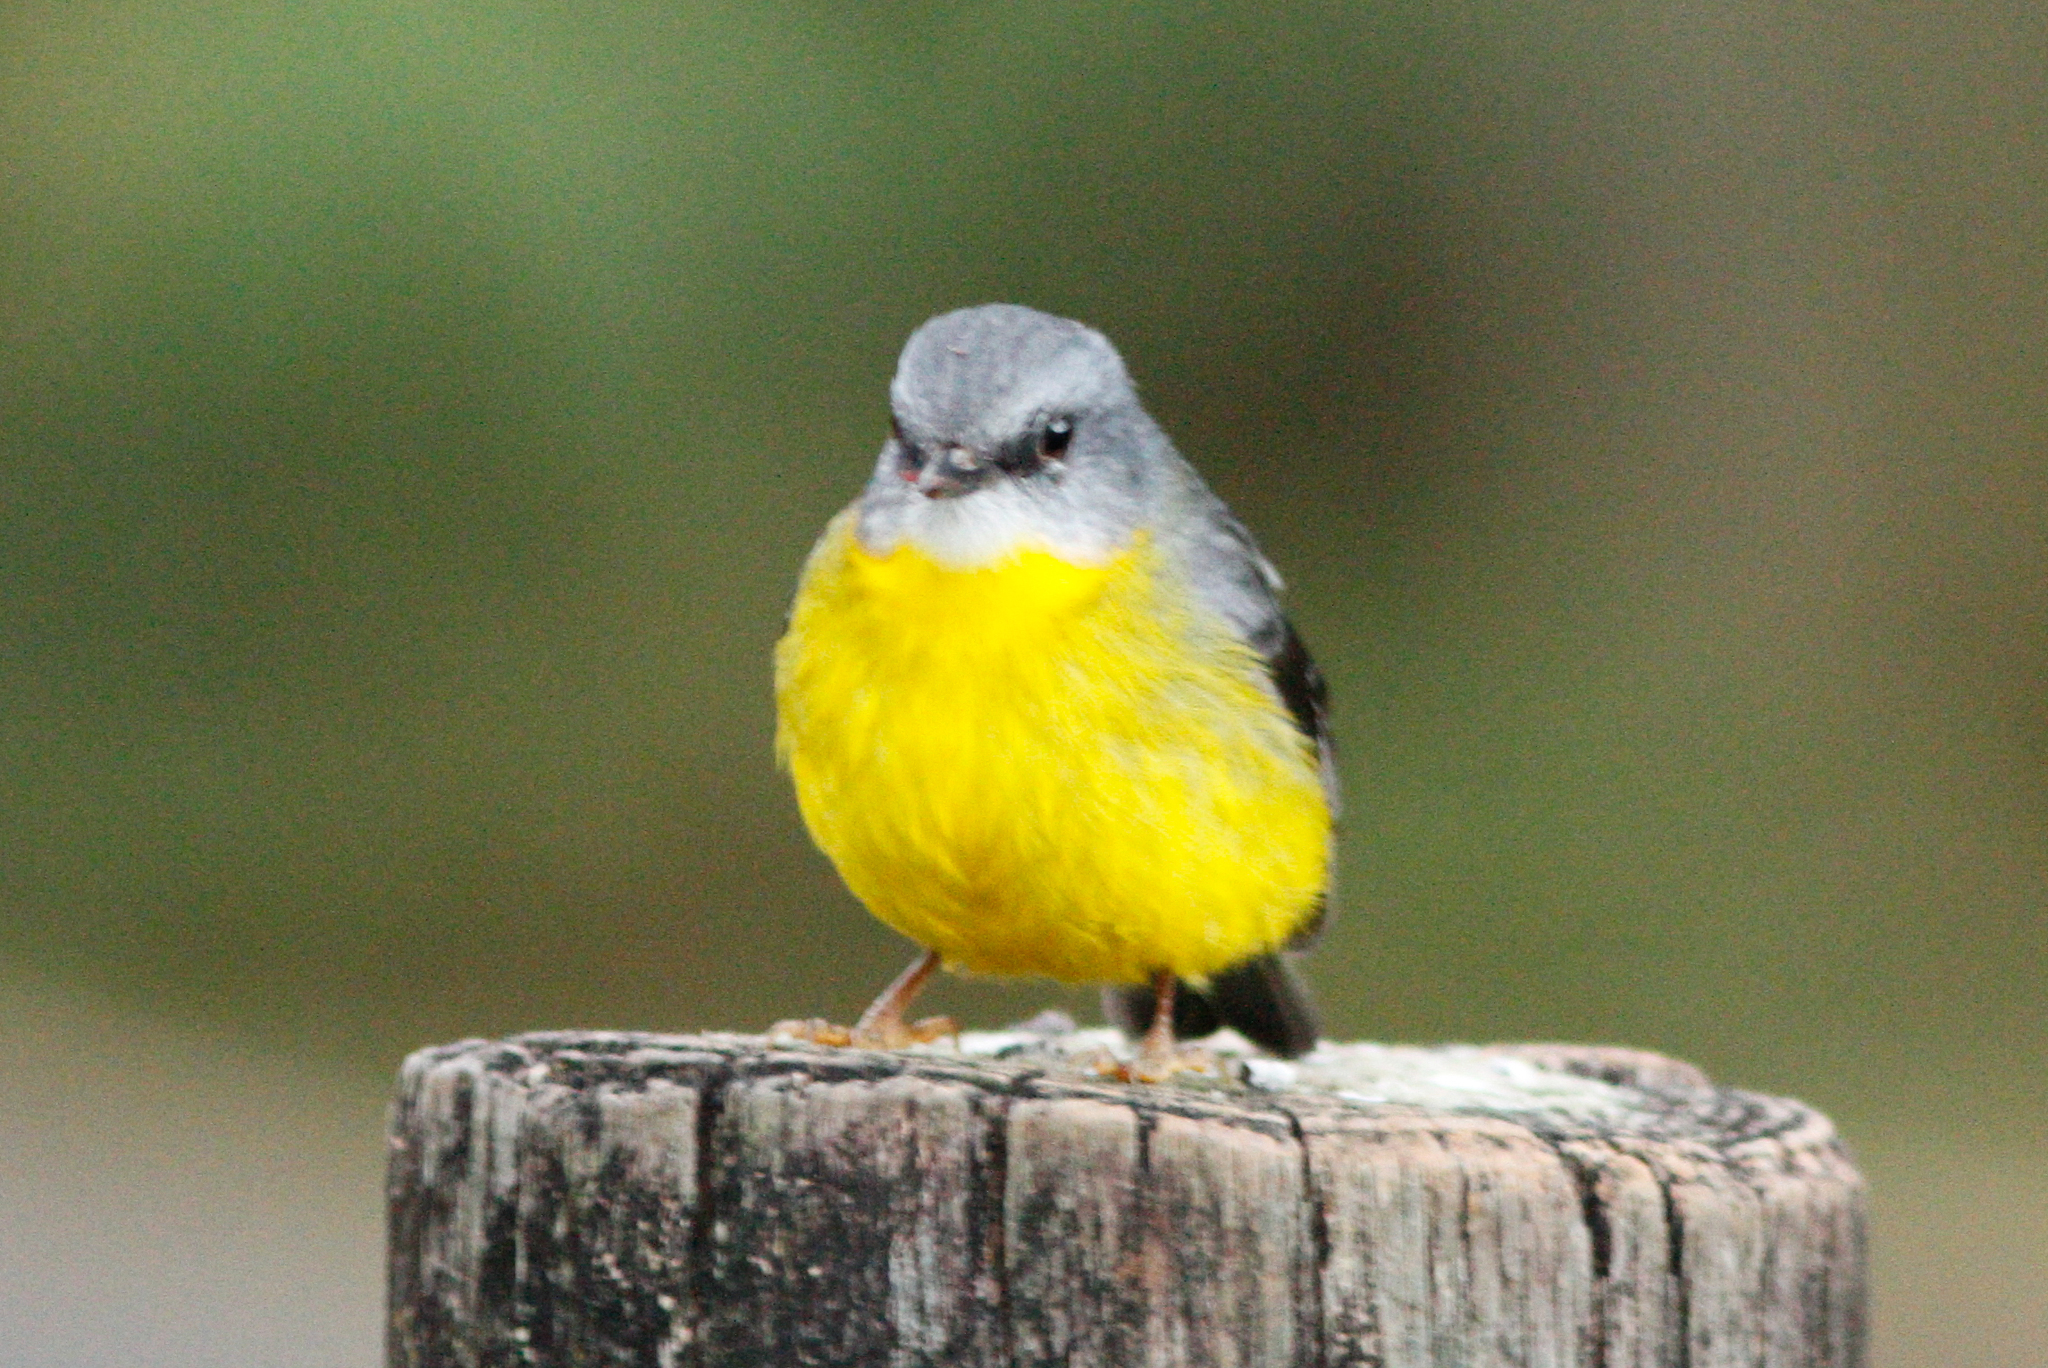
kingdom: Animalia
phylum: Chordata
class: Aves
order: Passeriformes
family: Petroicidae
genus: Eopsaltria
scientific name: Eopsaltria australis
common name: Eastern yellow robin
